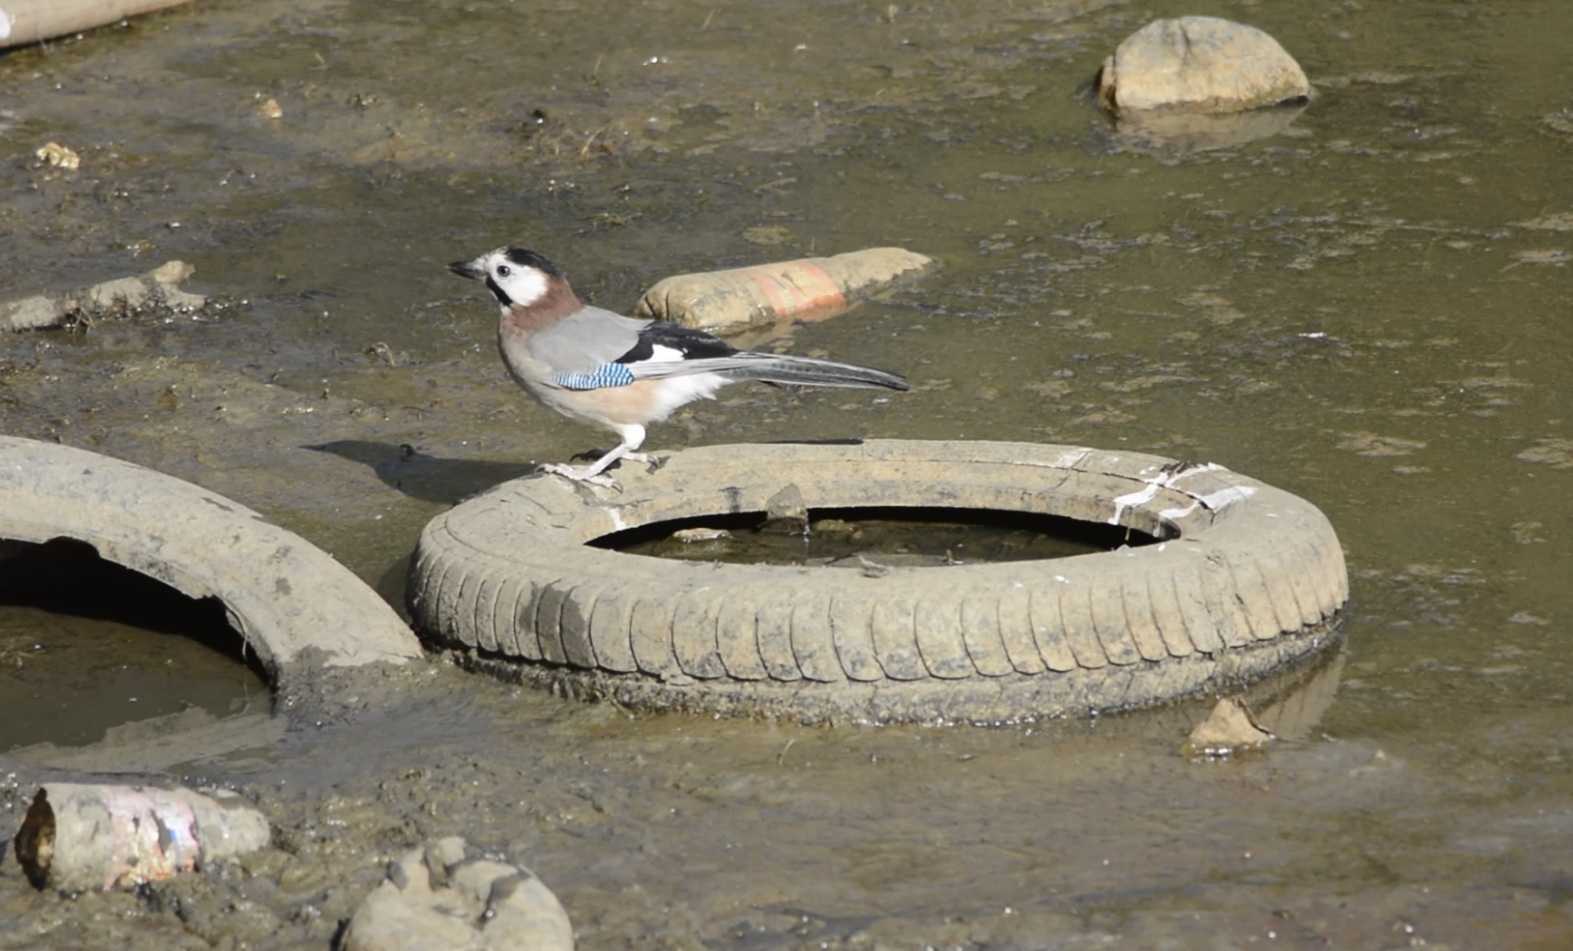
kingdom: Animalia
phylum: Chordata
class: Aves
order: Passeriformes
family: Corvidae
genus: Garrulus
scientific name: Garrulus glandarius
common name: Eurasian jay
